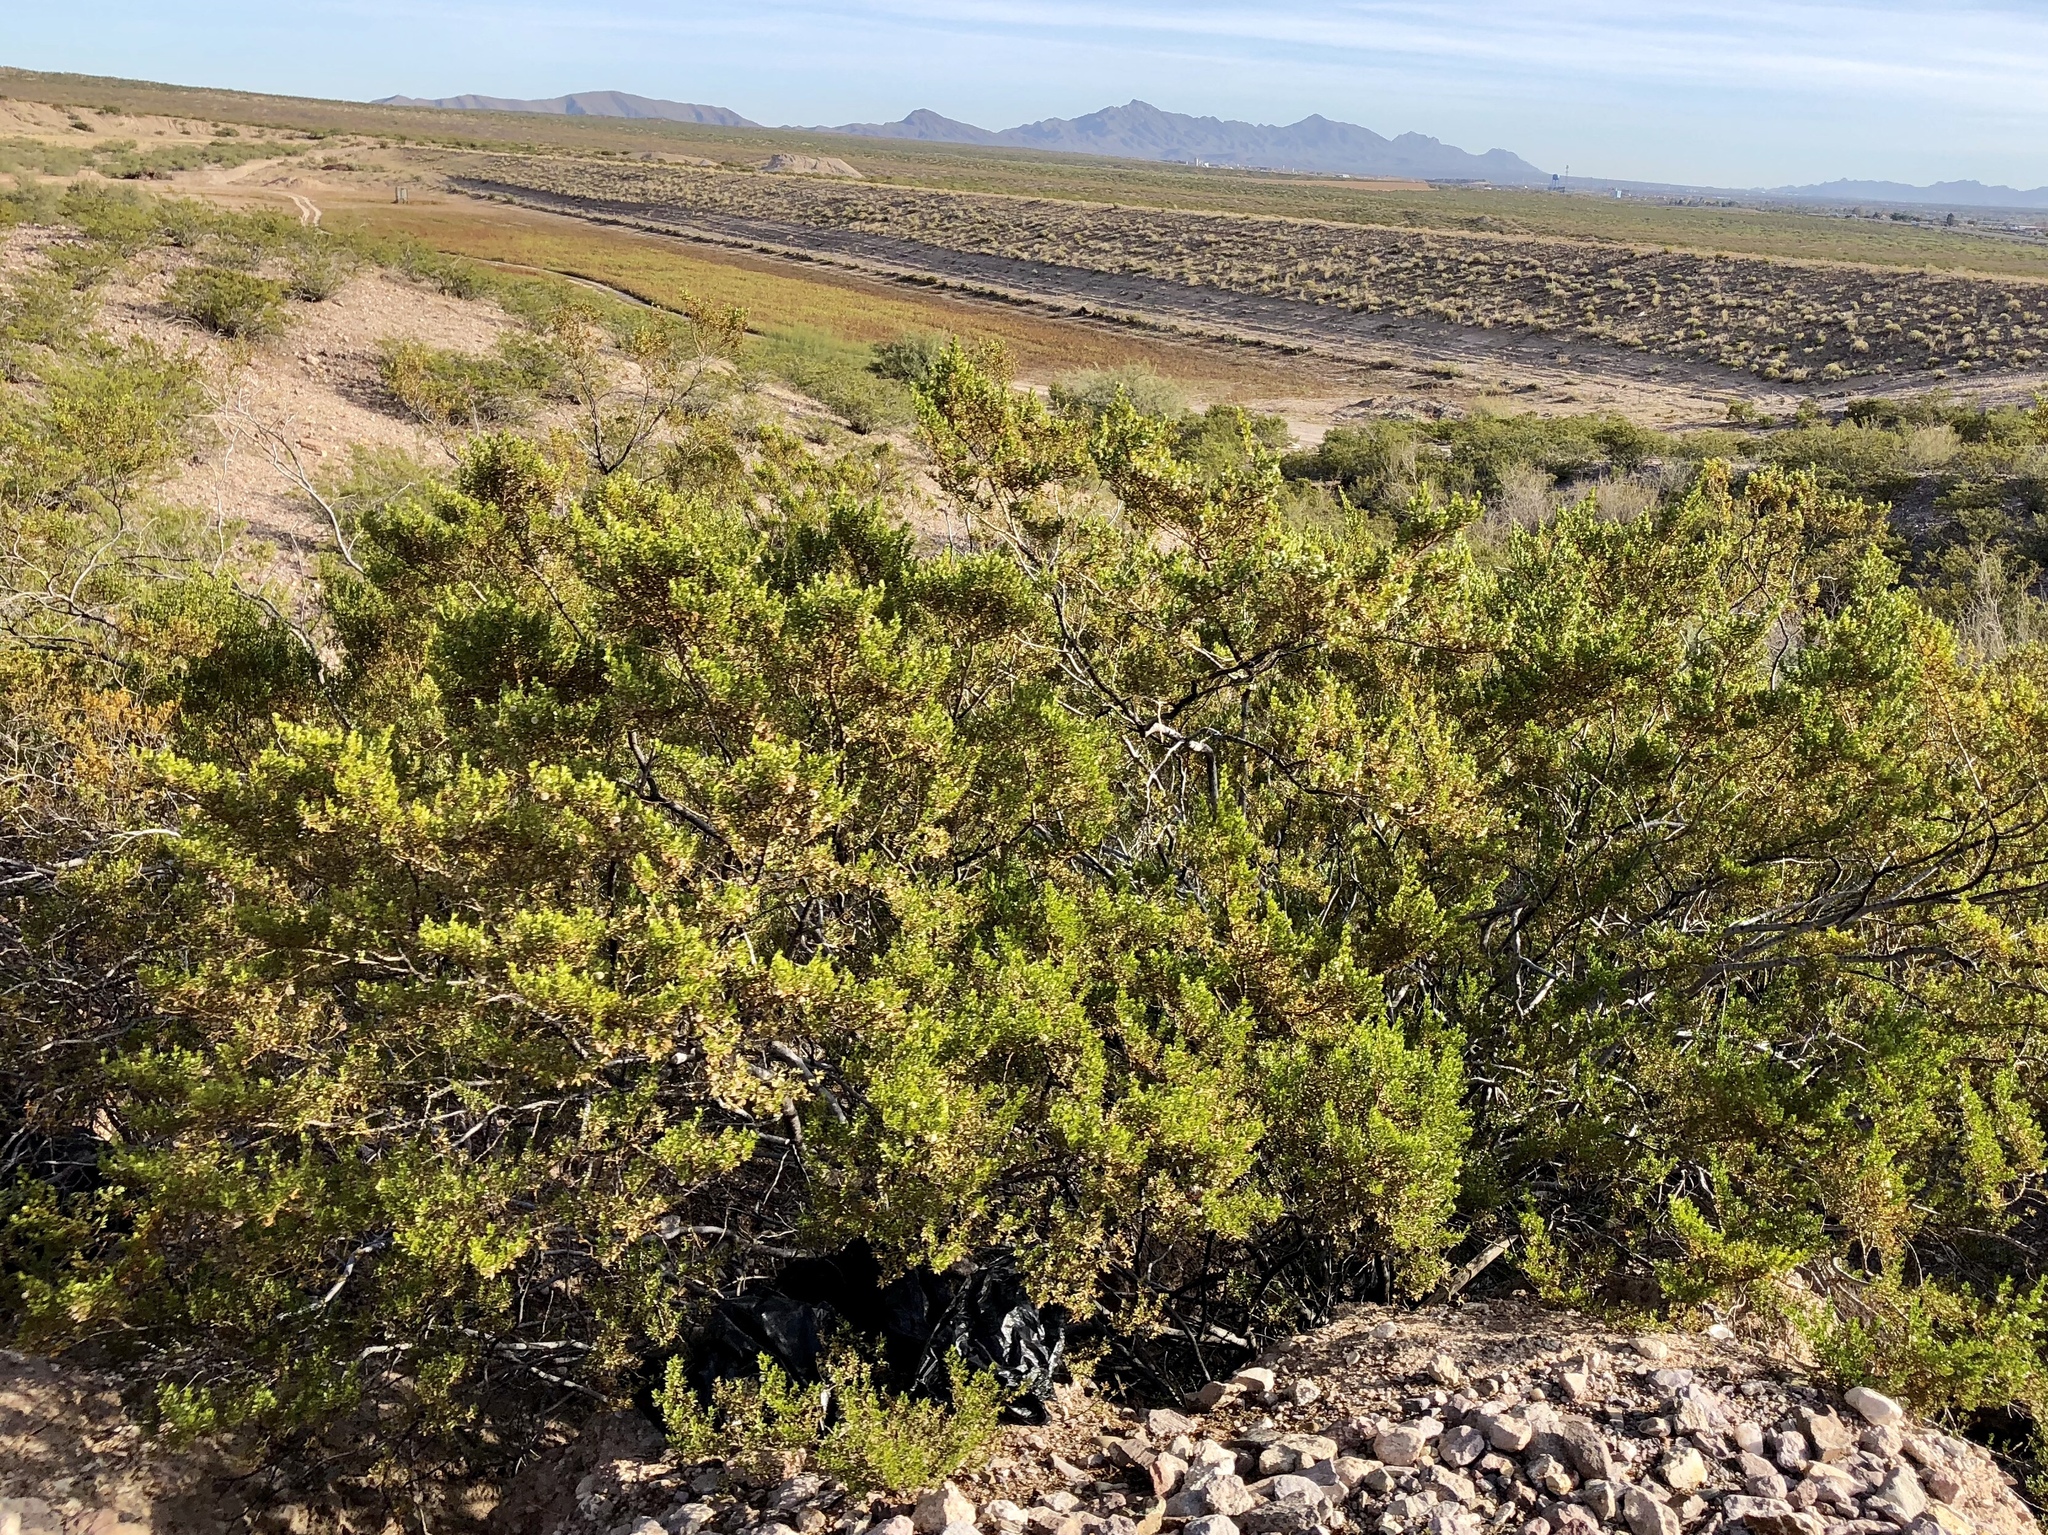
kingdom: Plantae
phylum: Tracheophyta
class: Magnoliopsida
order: Zygophyllales
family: Zygophyllaceae
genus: Larrea
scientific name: Larrea tridentata
